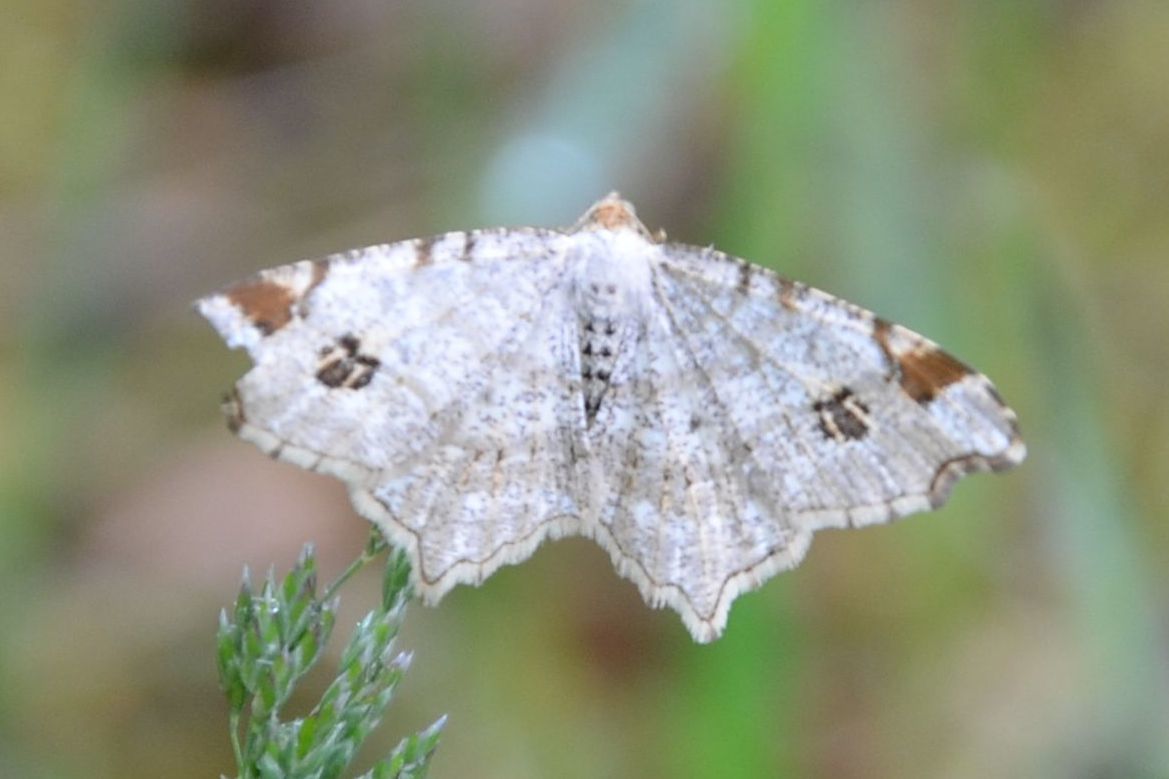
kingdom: Animalia
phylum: Arthropoda
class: Insecta
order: Lepidoptera
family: Geometridae
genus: Macaria
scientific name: Macaria notata
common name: Peacock moth
